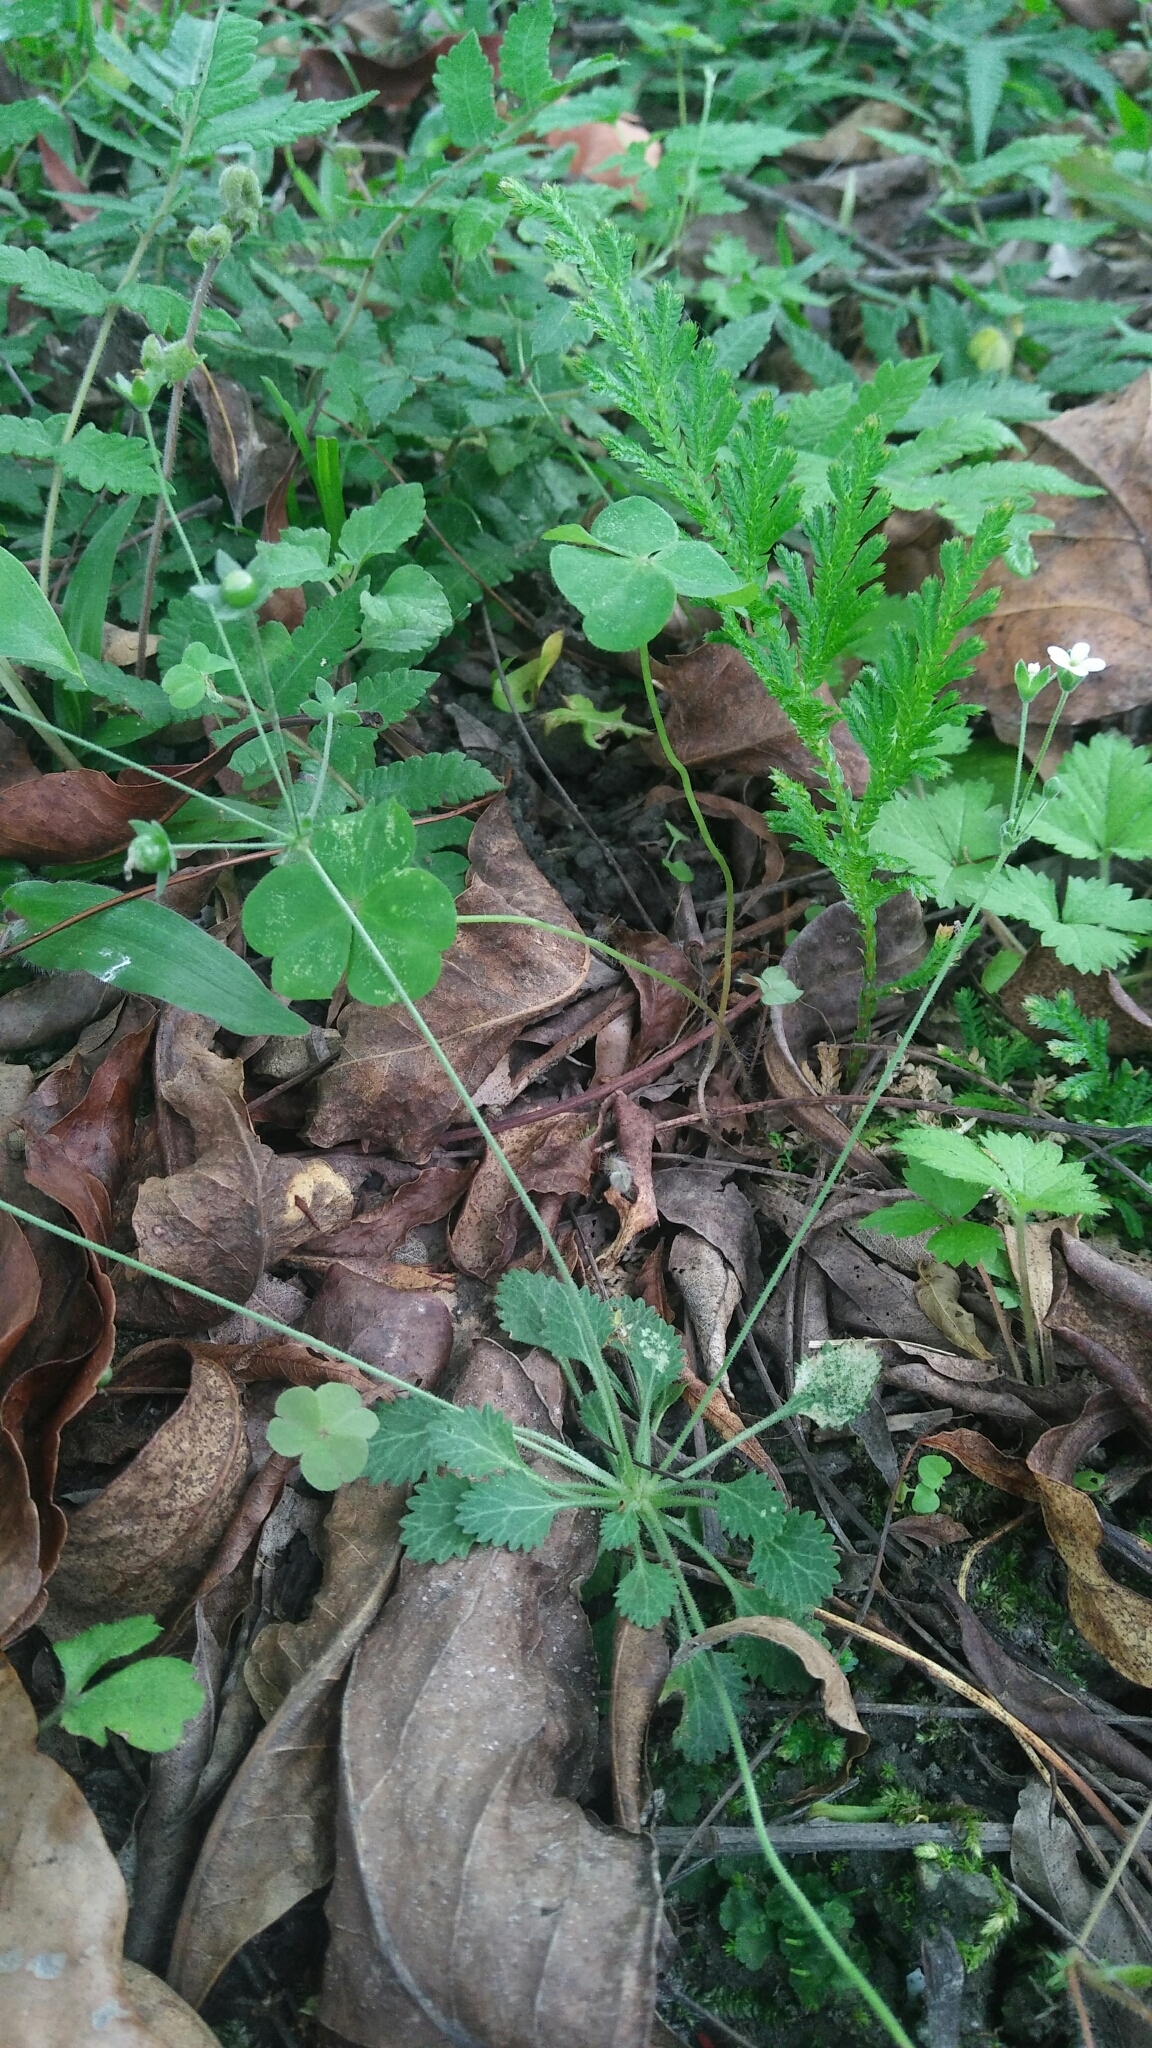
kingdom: Plantae
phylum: Tracheophyta
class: Magnoliopsida
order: Ericales
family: Primulaceae
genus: Androsace
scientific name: Androsace umbellata
